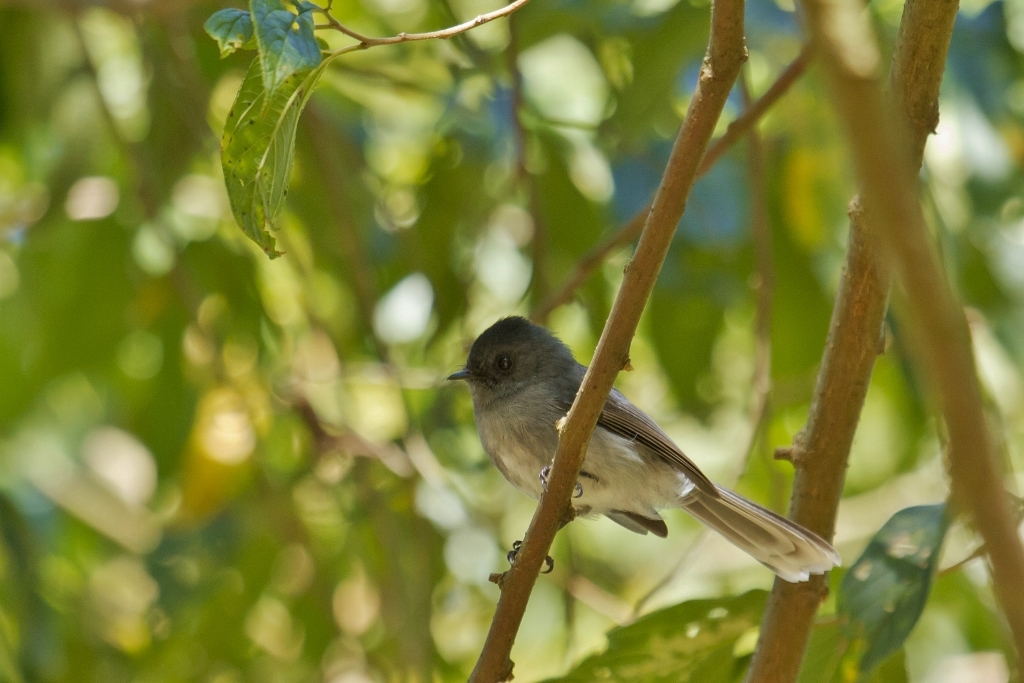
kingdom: Animalia
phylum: Chordata
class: Aves
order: Passeriformes
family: Stenostiridae
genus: Elminia
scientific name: Elminia albonotata
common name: White-tailed crested-flycatcher
